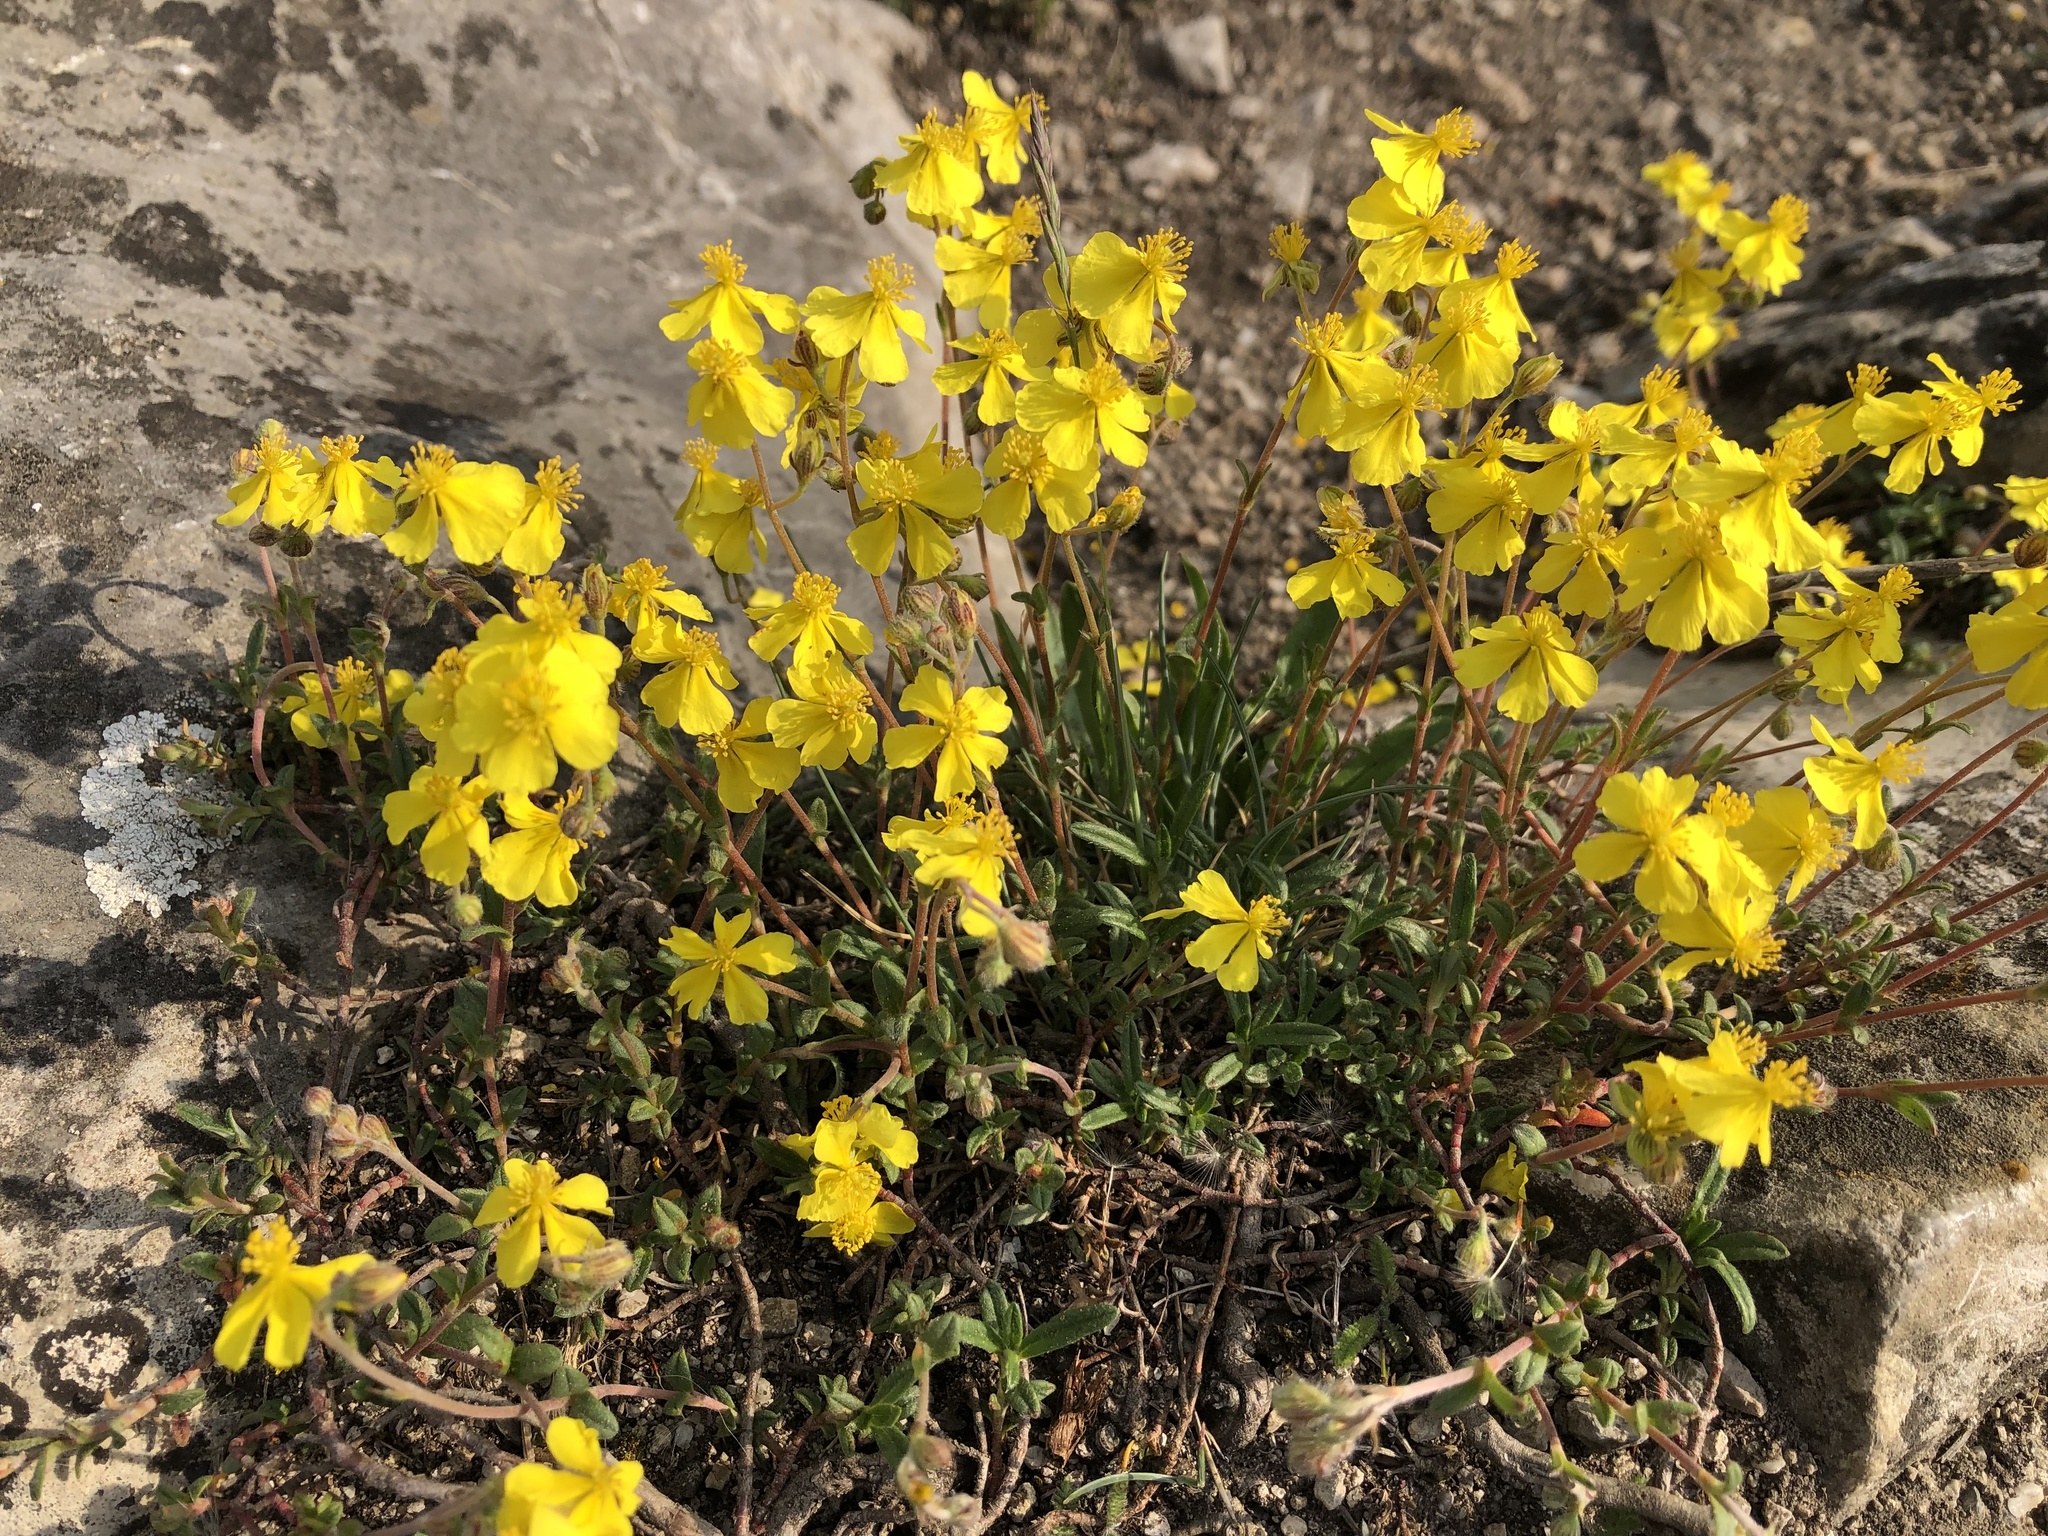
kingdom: Plantae
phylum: Tracheophyta
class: Magnoliopsida
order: Malvales
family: Cistaceae
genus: Helianthemum
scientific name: Helianthemum canum
